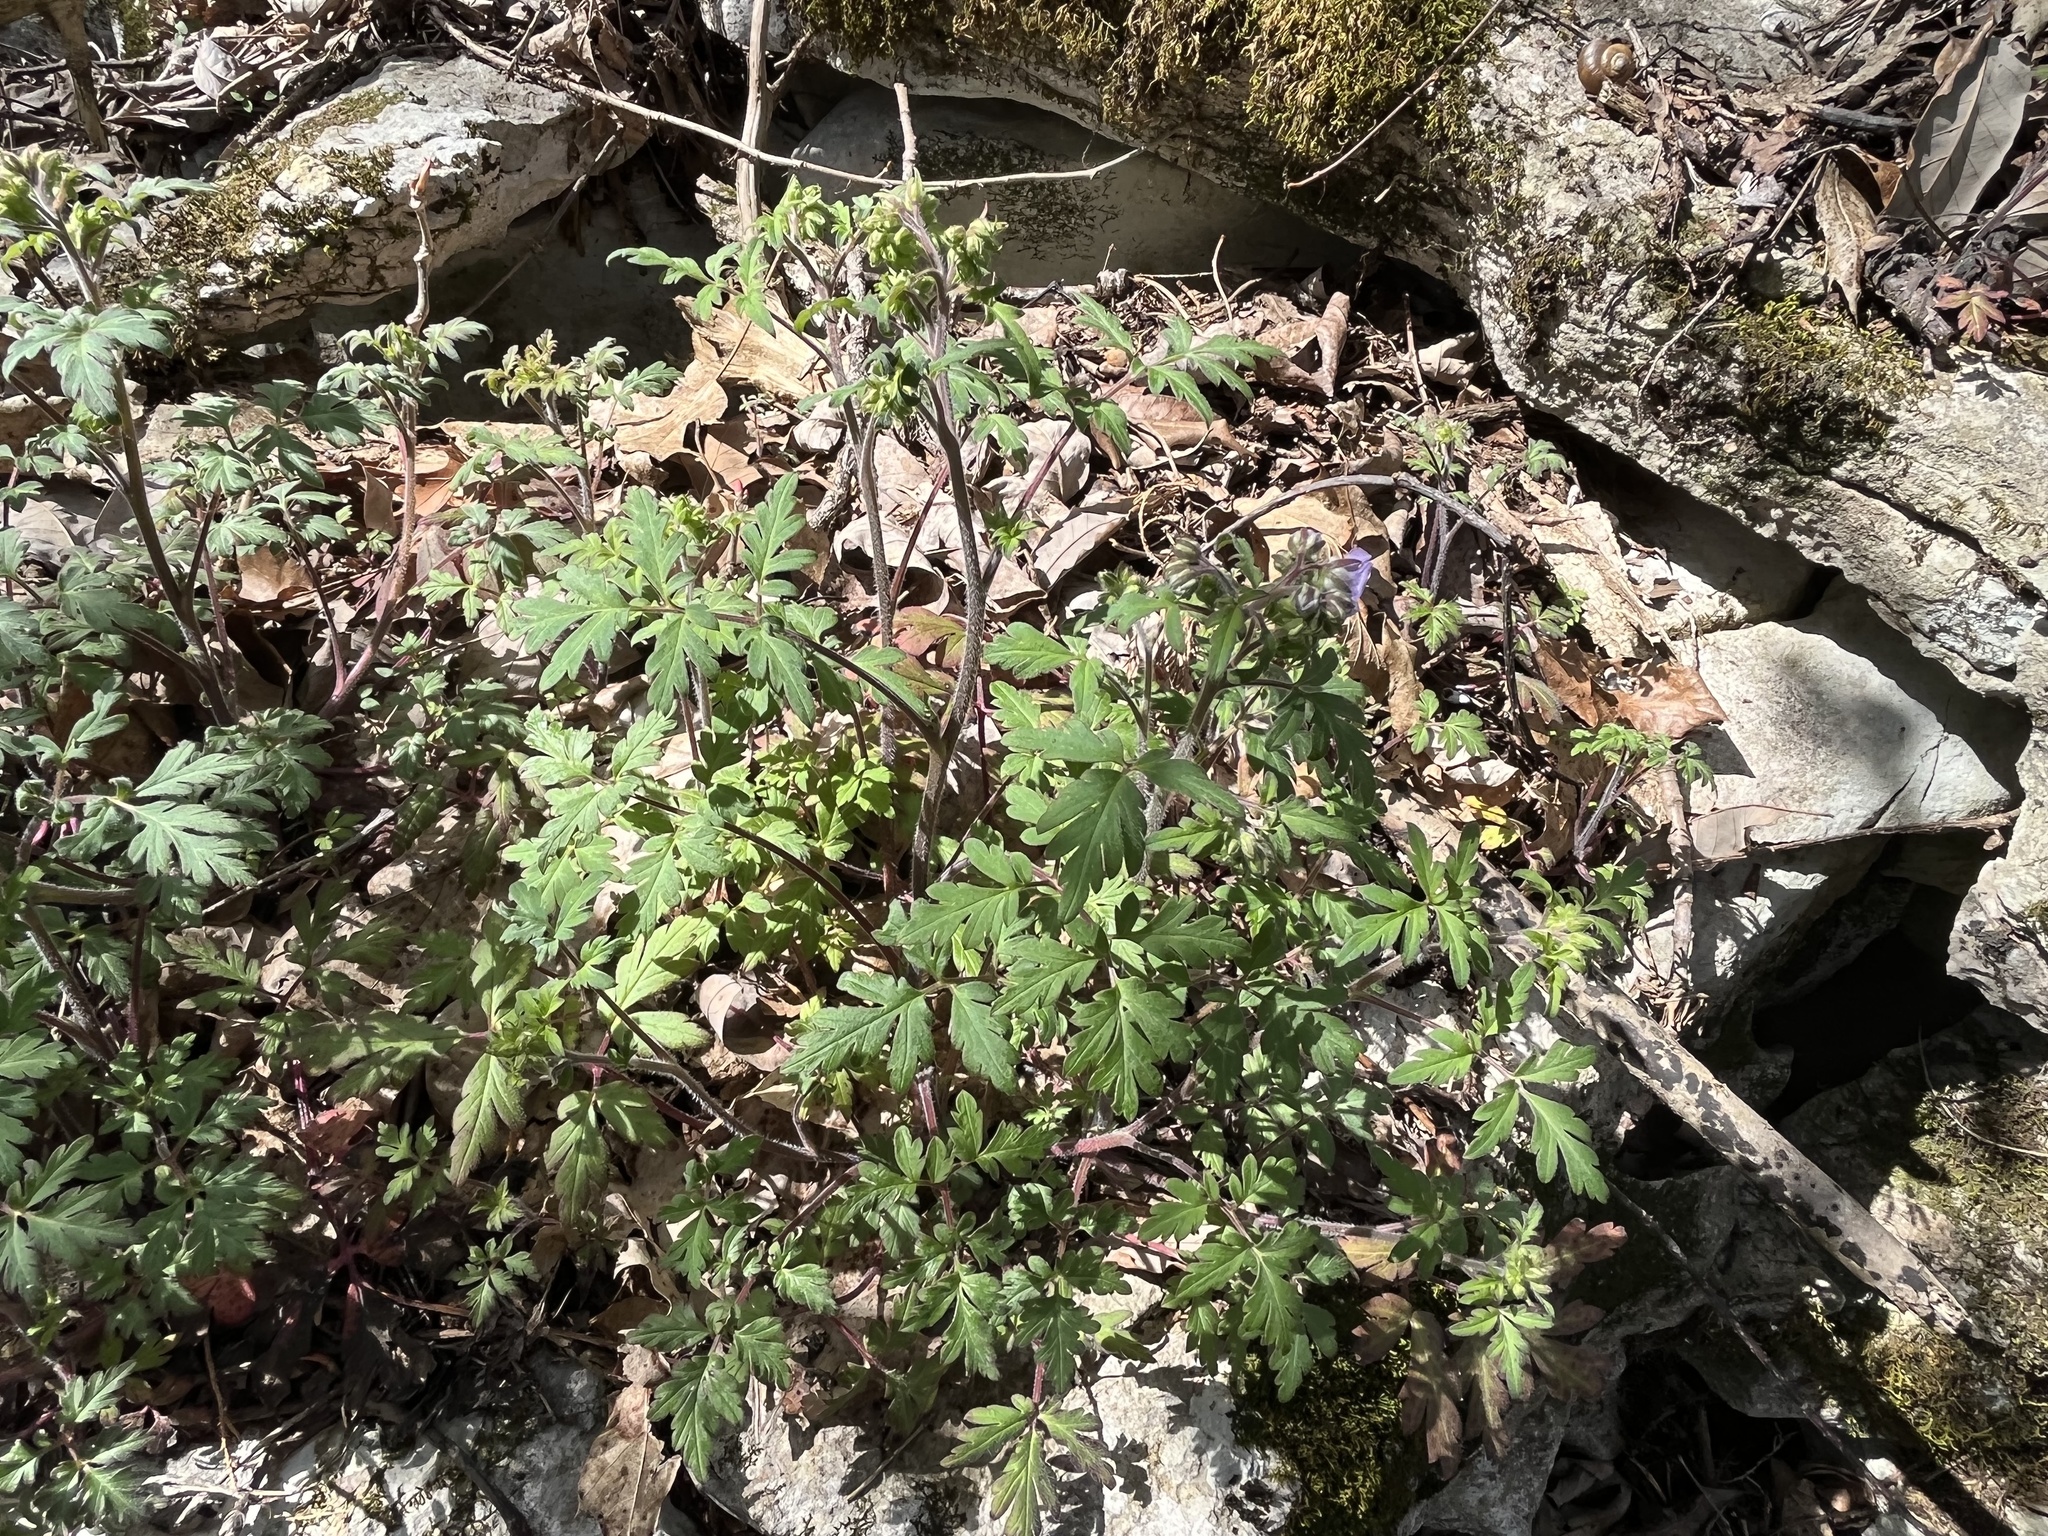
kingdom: Plantae
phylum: Tracheophyta
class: Magnoliopsida
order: Boraginales
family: Hydrophyllaceae
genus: Phacelia
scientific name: Phacelia bipinnatifida
